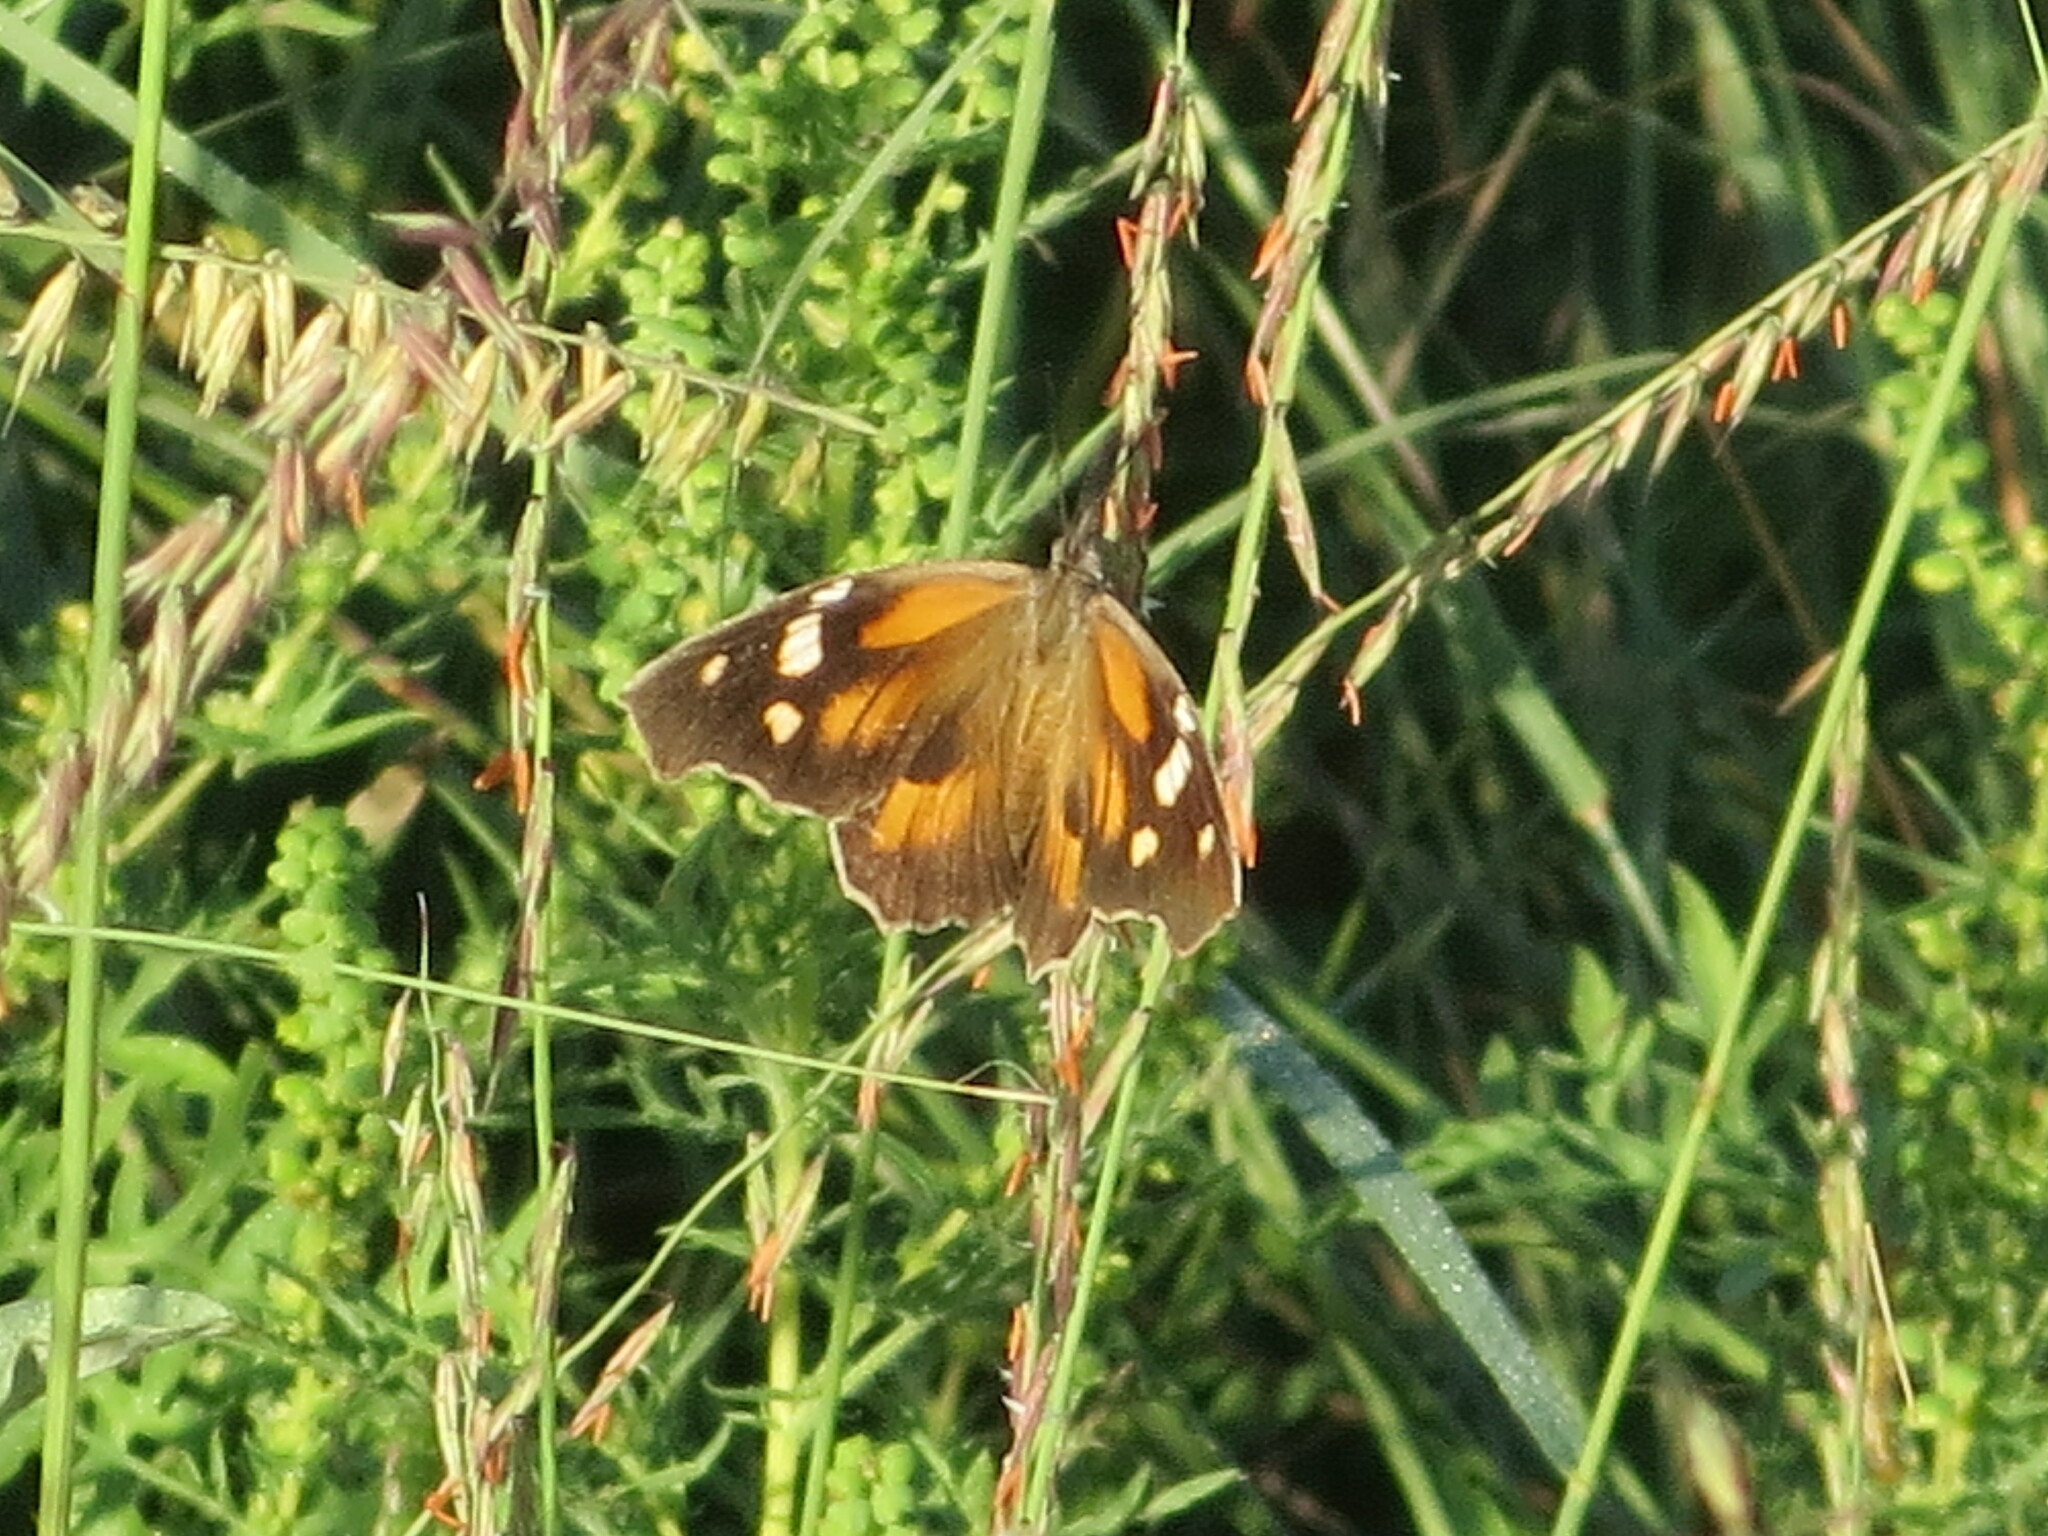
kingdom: Animalia
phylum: Arthropoda
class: Insecta
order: Lepidoptera
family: Nymphalidae
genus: Libytheana
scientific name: Libytheana carinenta
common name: American snout
